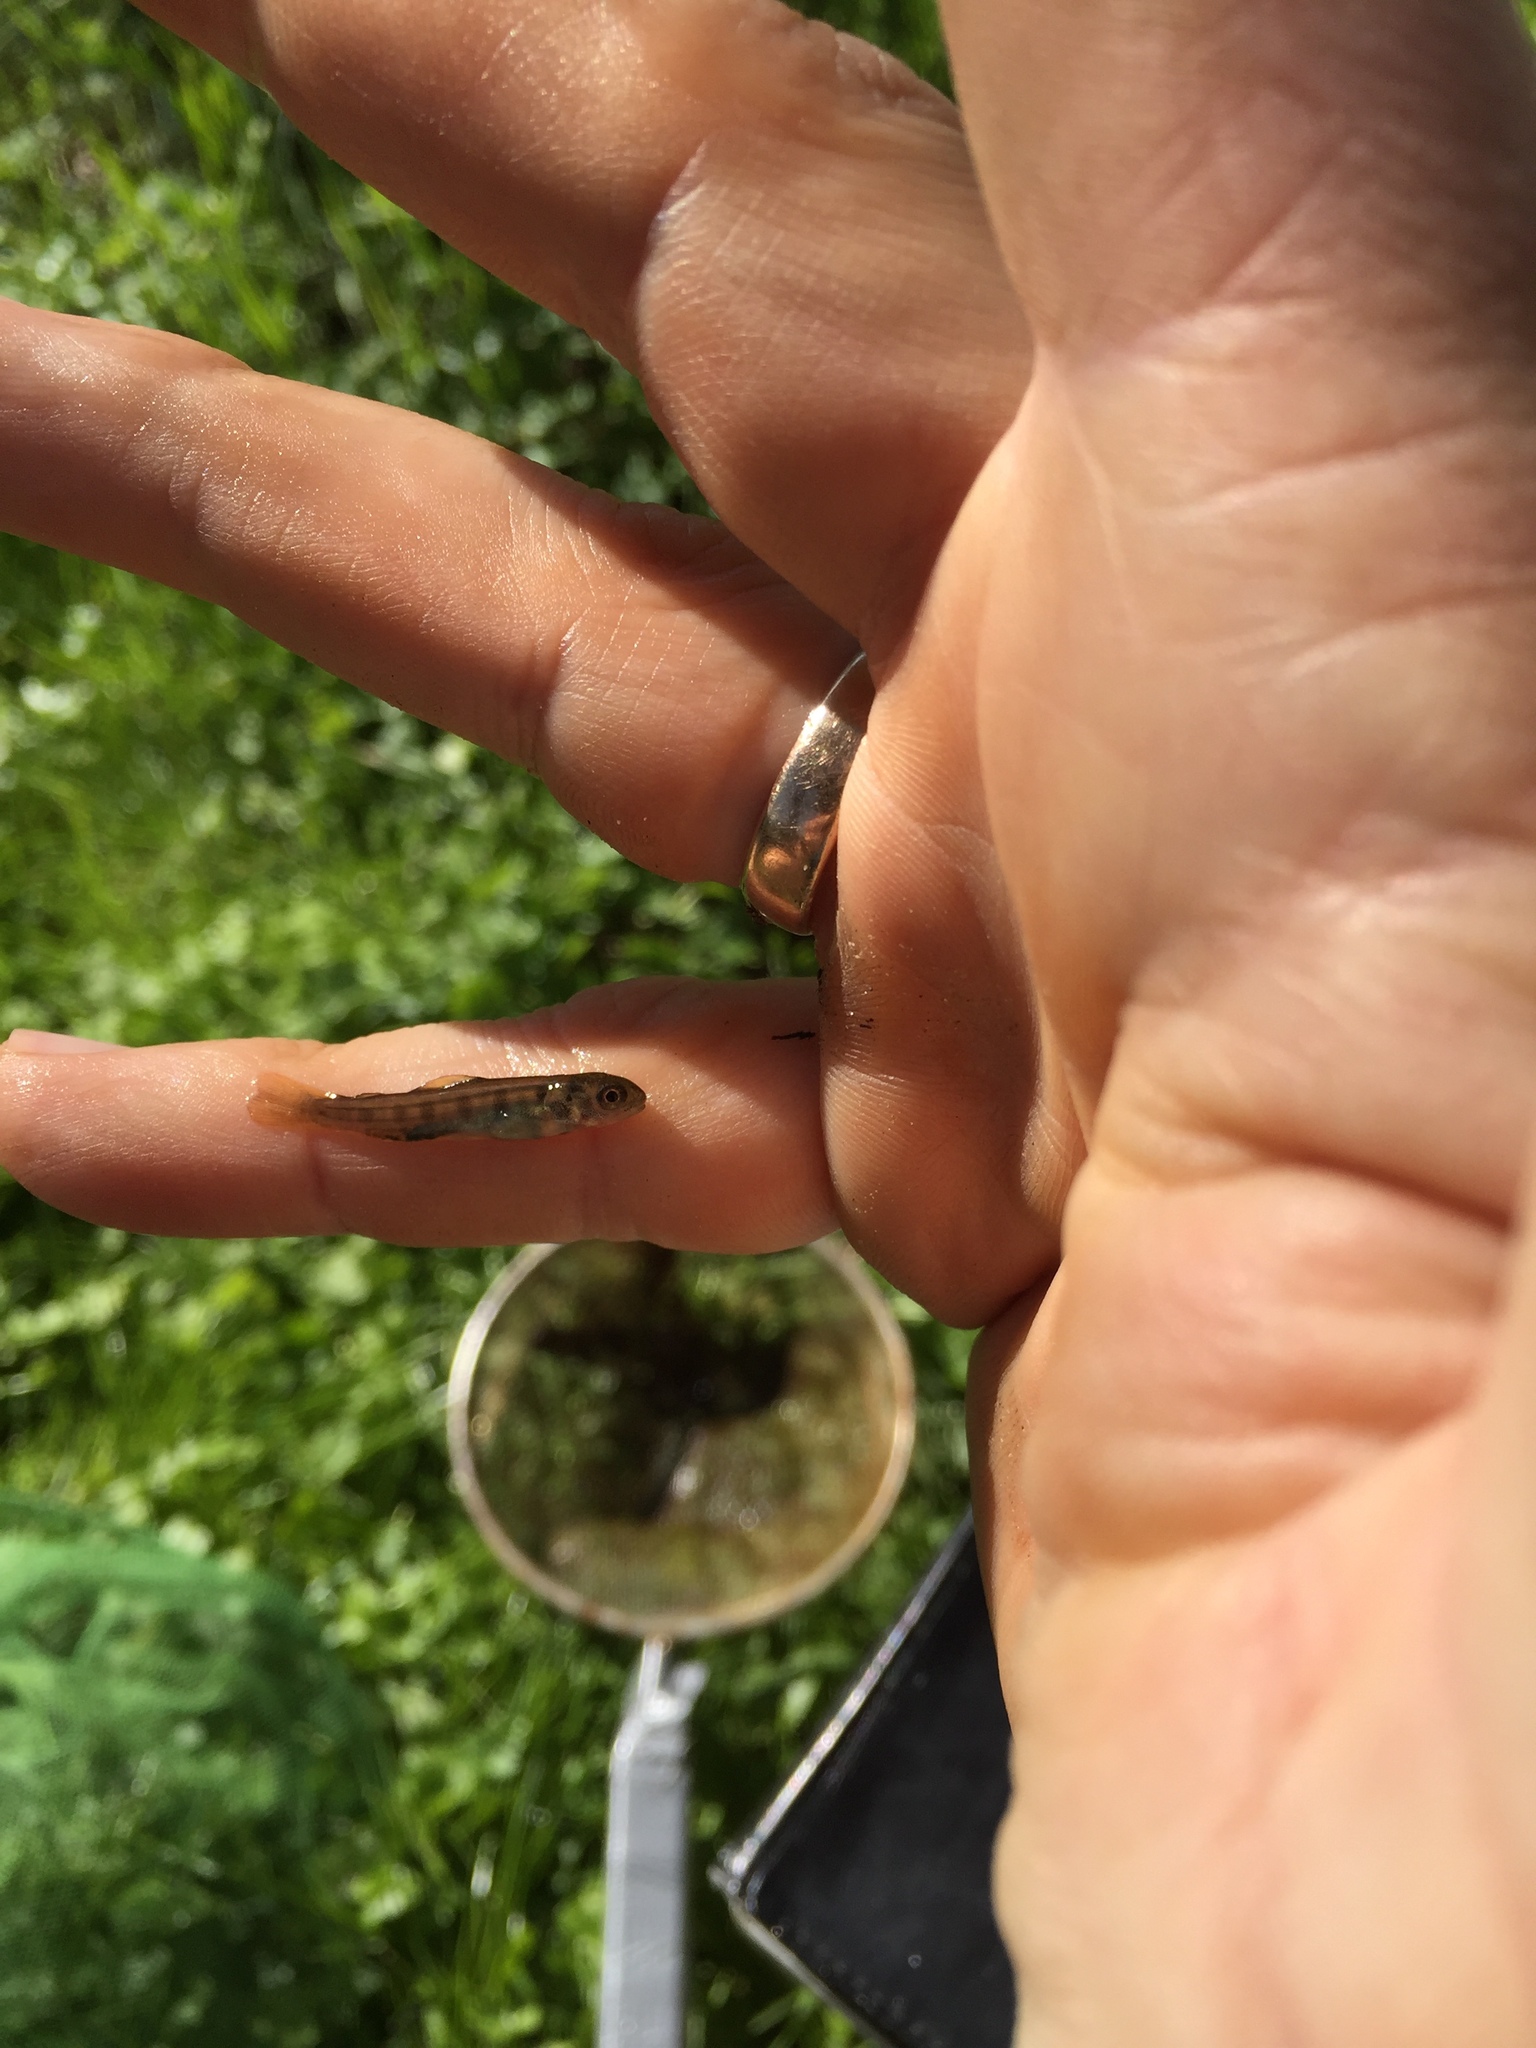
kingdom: Animalia
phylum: Chordata
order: Salmoniformes
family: Salmonidae
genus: Salmo
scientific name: Salmo trutta
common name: Brown trout
